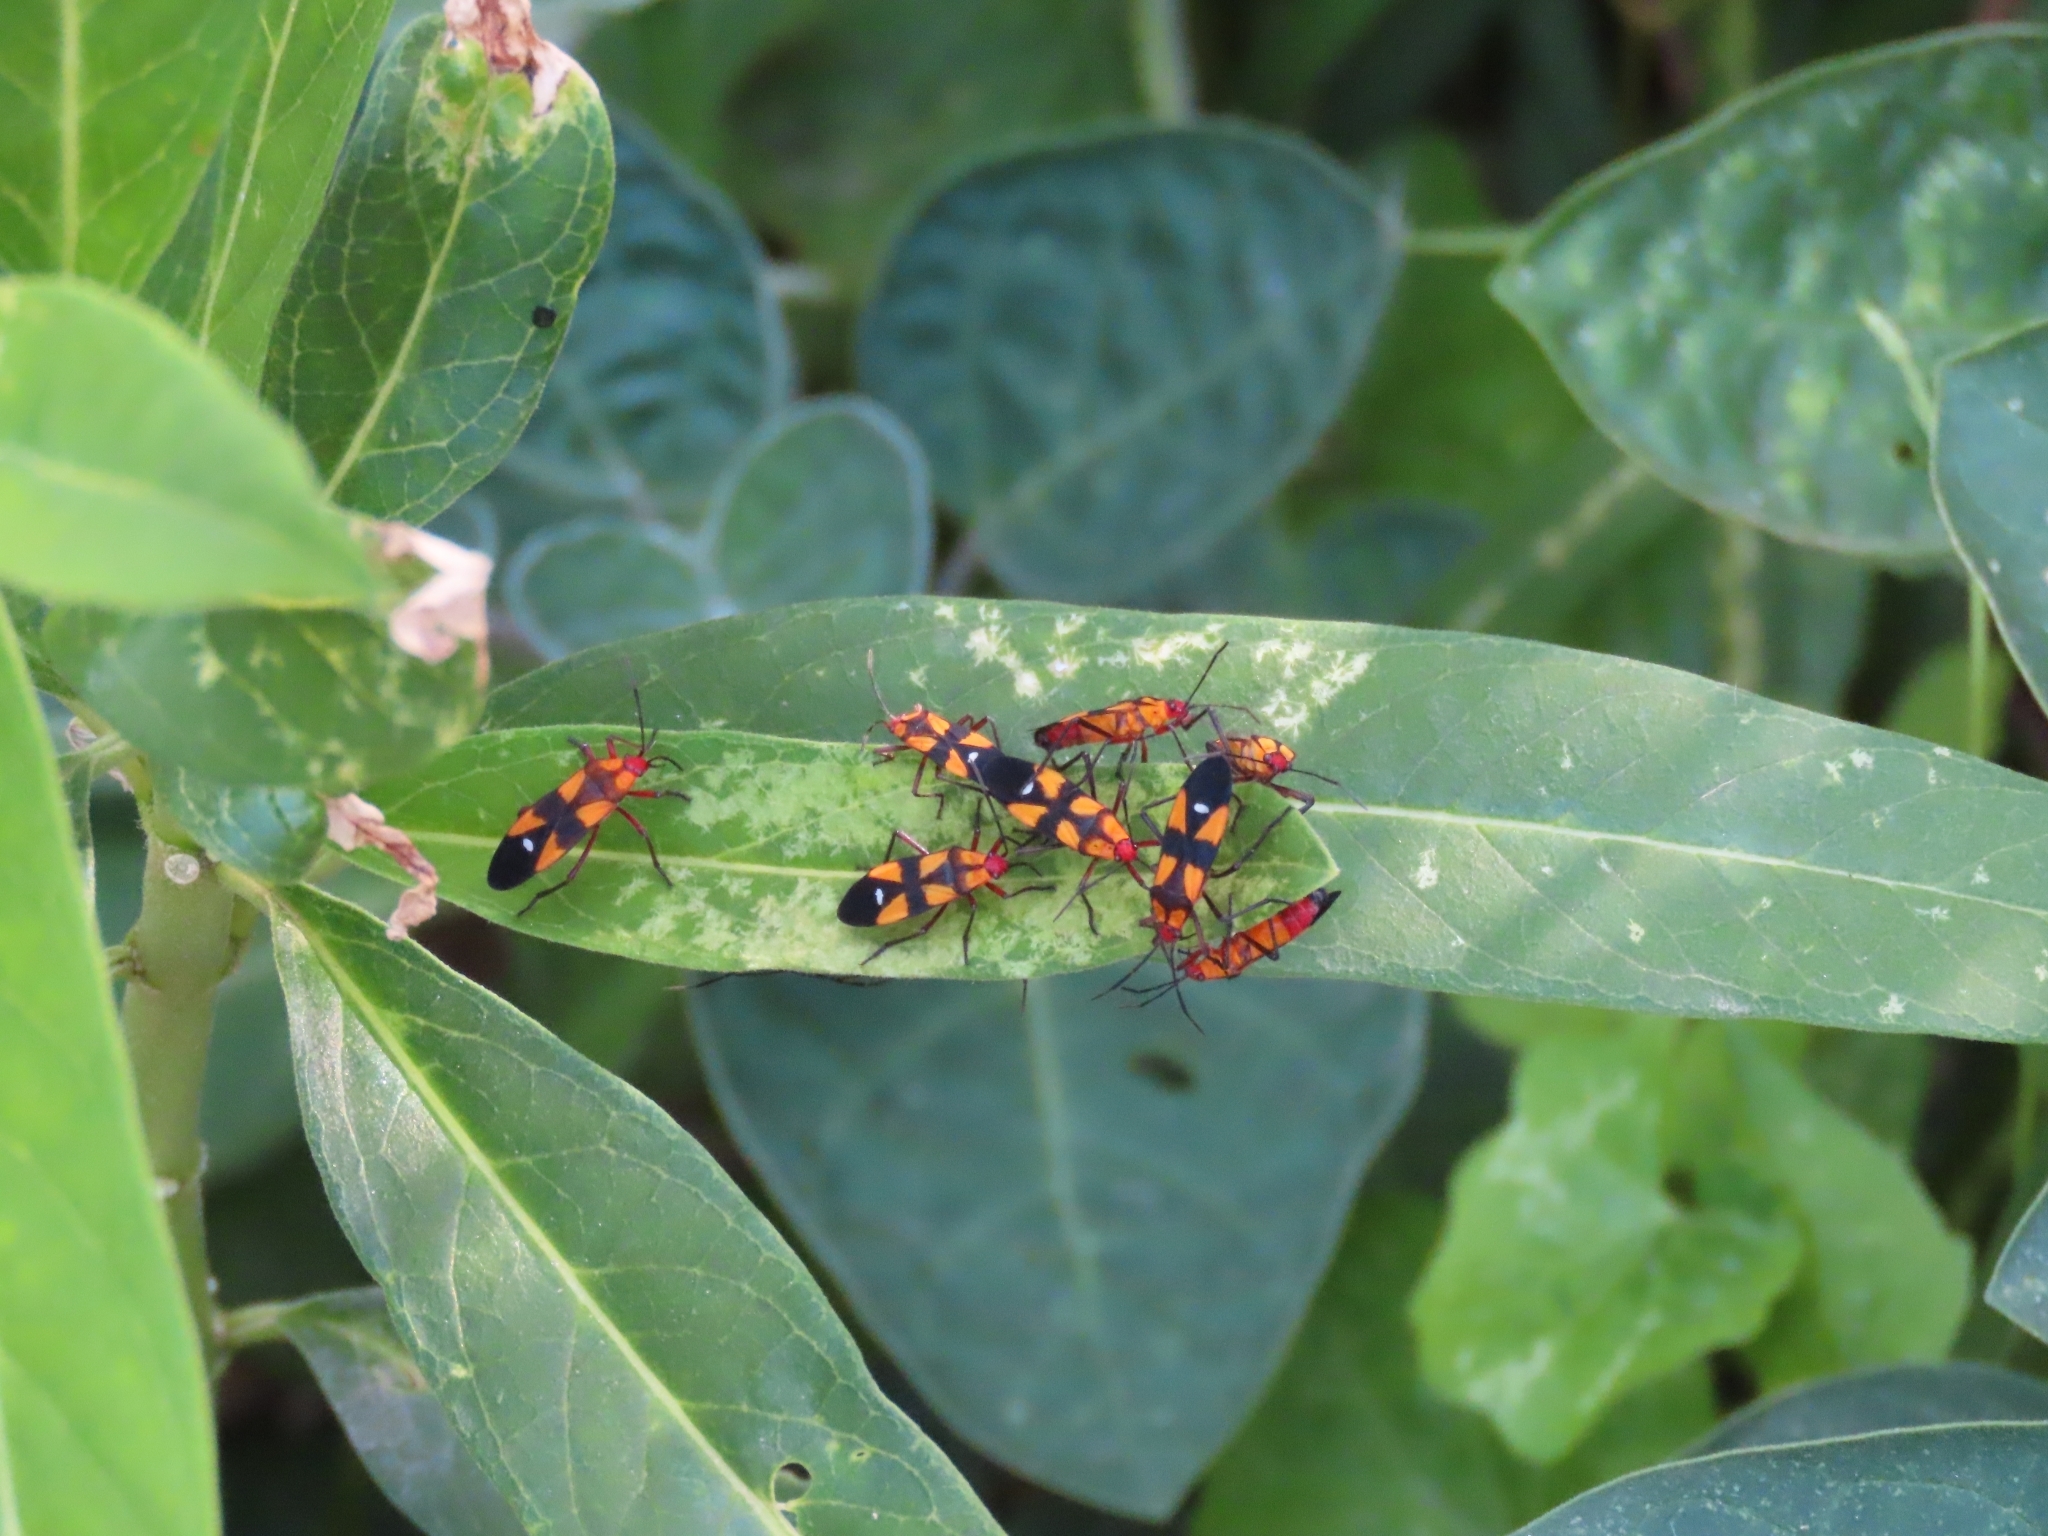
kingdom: Animalia
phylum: Arthropoda
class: Insecta
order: Hemiptera
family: Lygaeidae
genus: Oncopeltus
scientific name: Oncopeltus sexmaculatus
